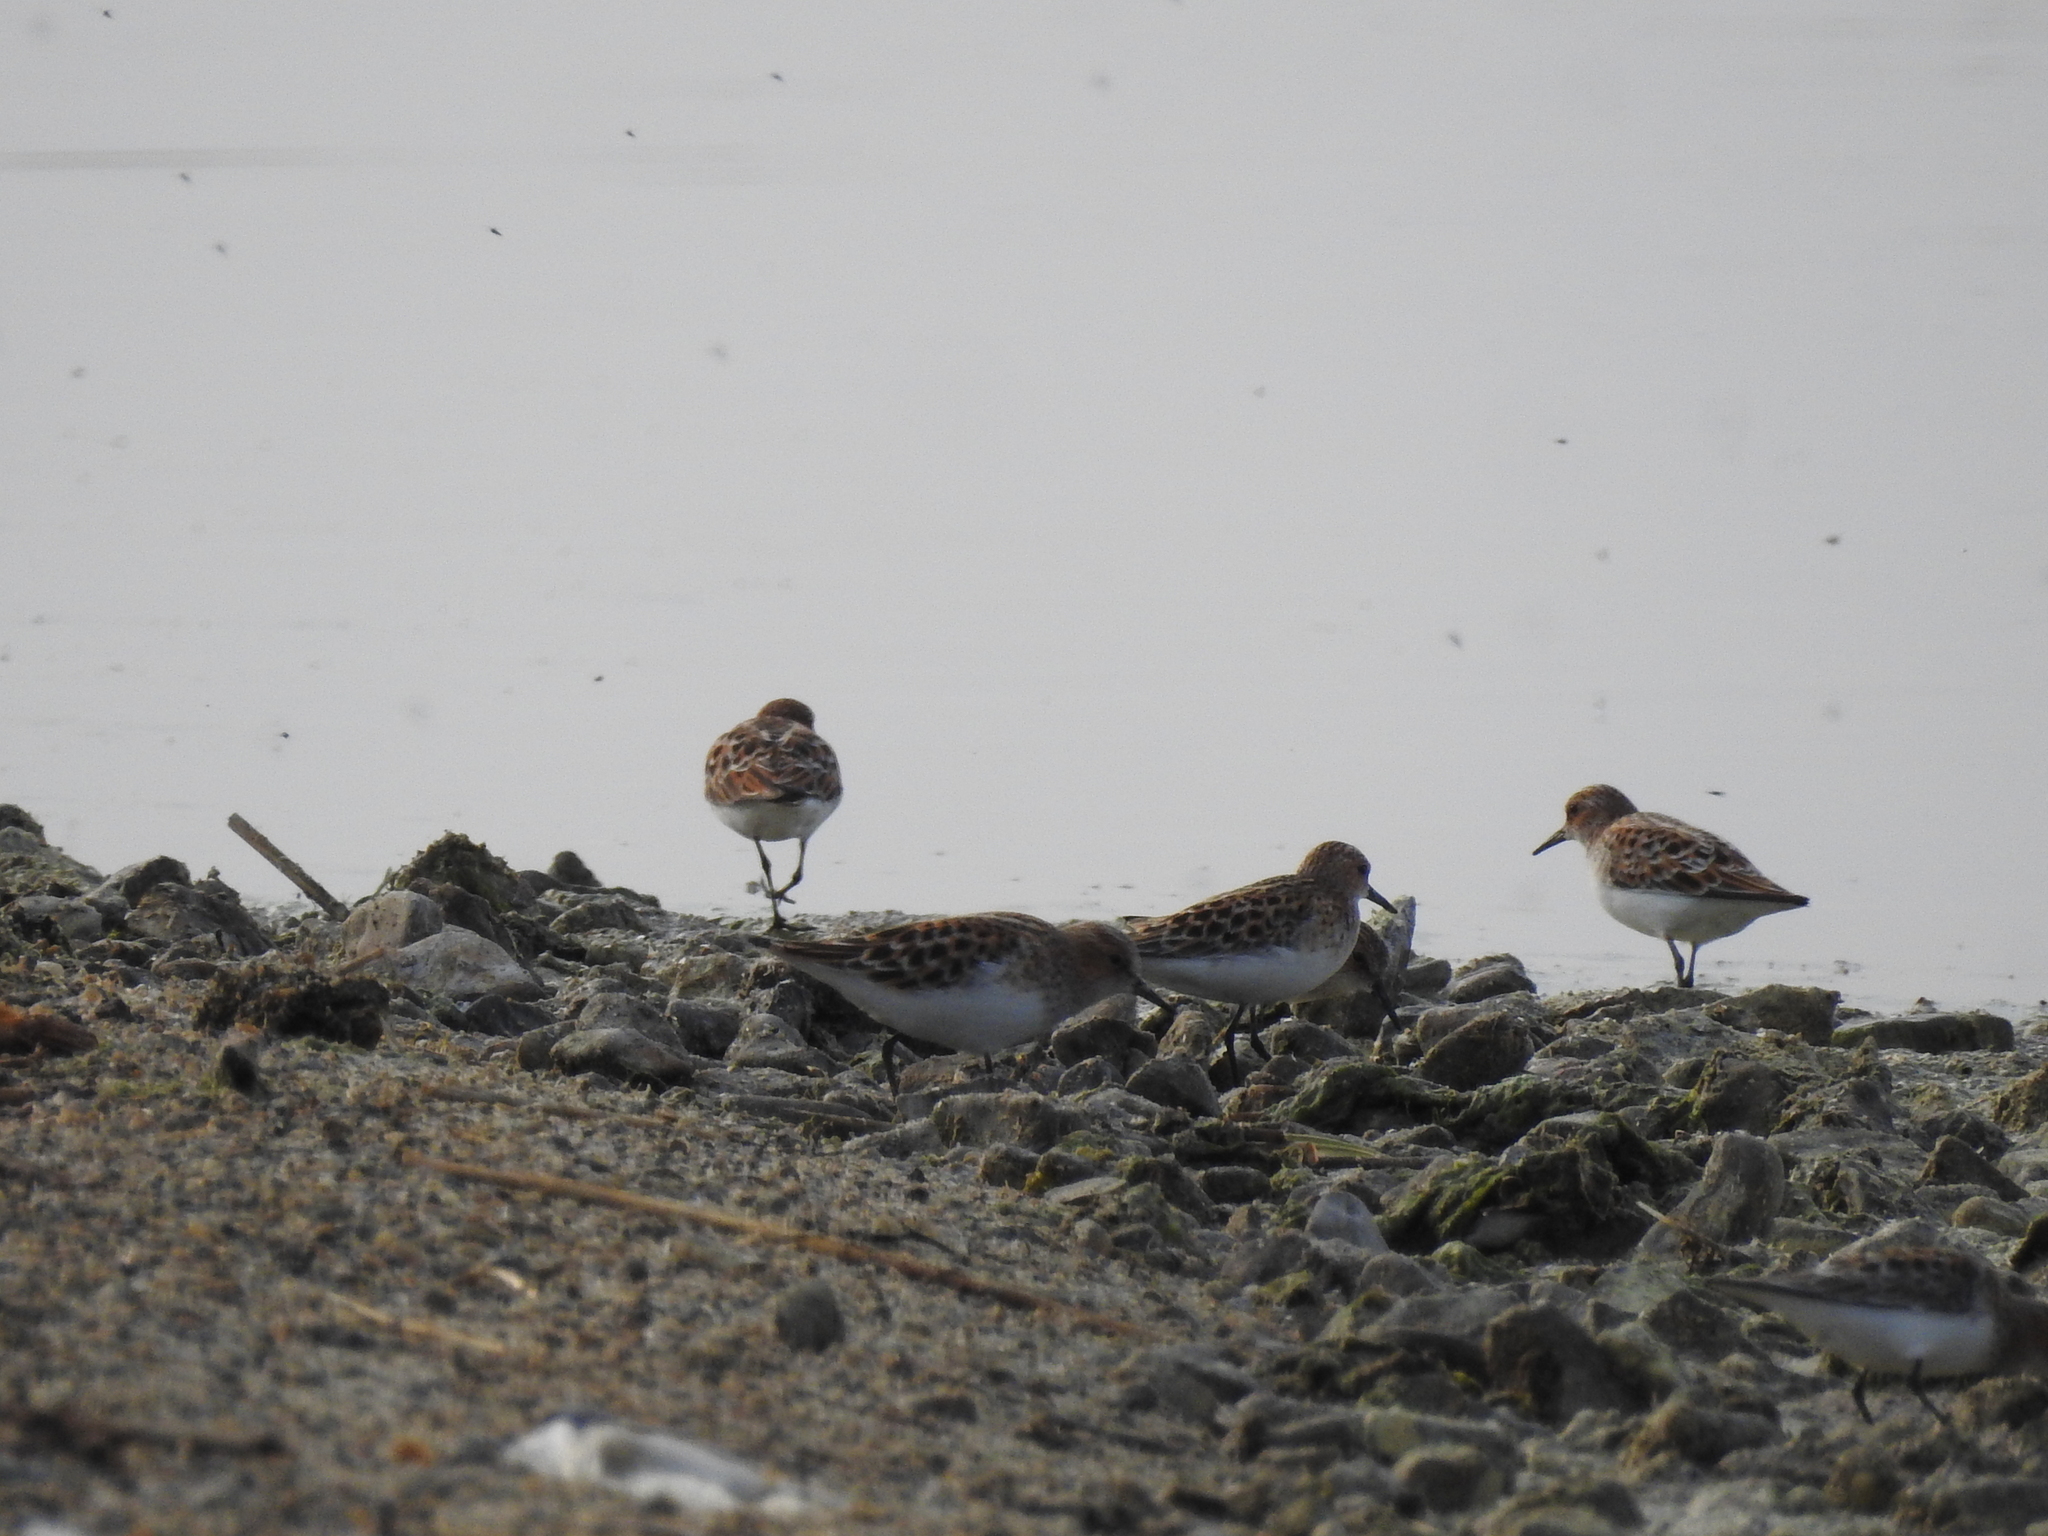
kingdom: Animalia
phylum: Chordata
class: Aves
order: Charadriiformes
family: Scolopacidae
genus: Calidris
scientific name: Calidris minuta
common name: Little stint
